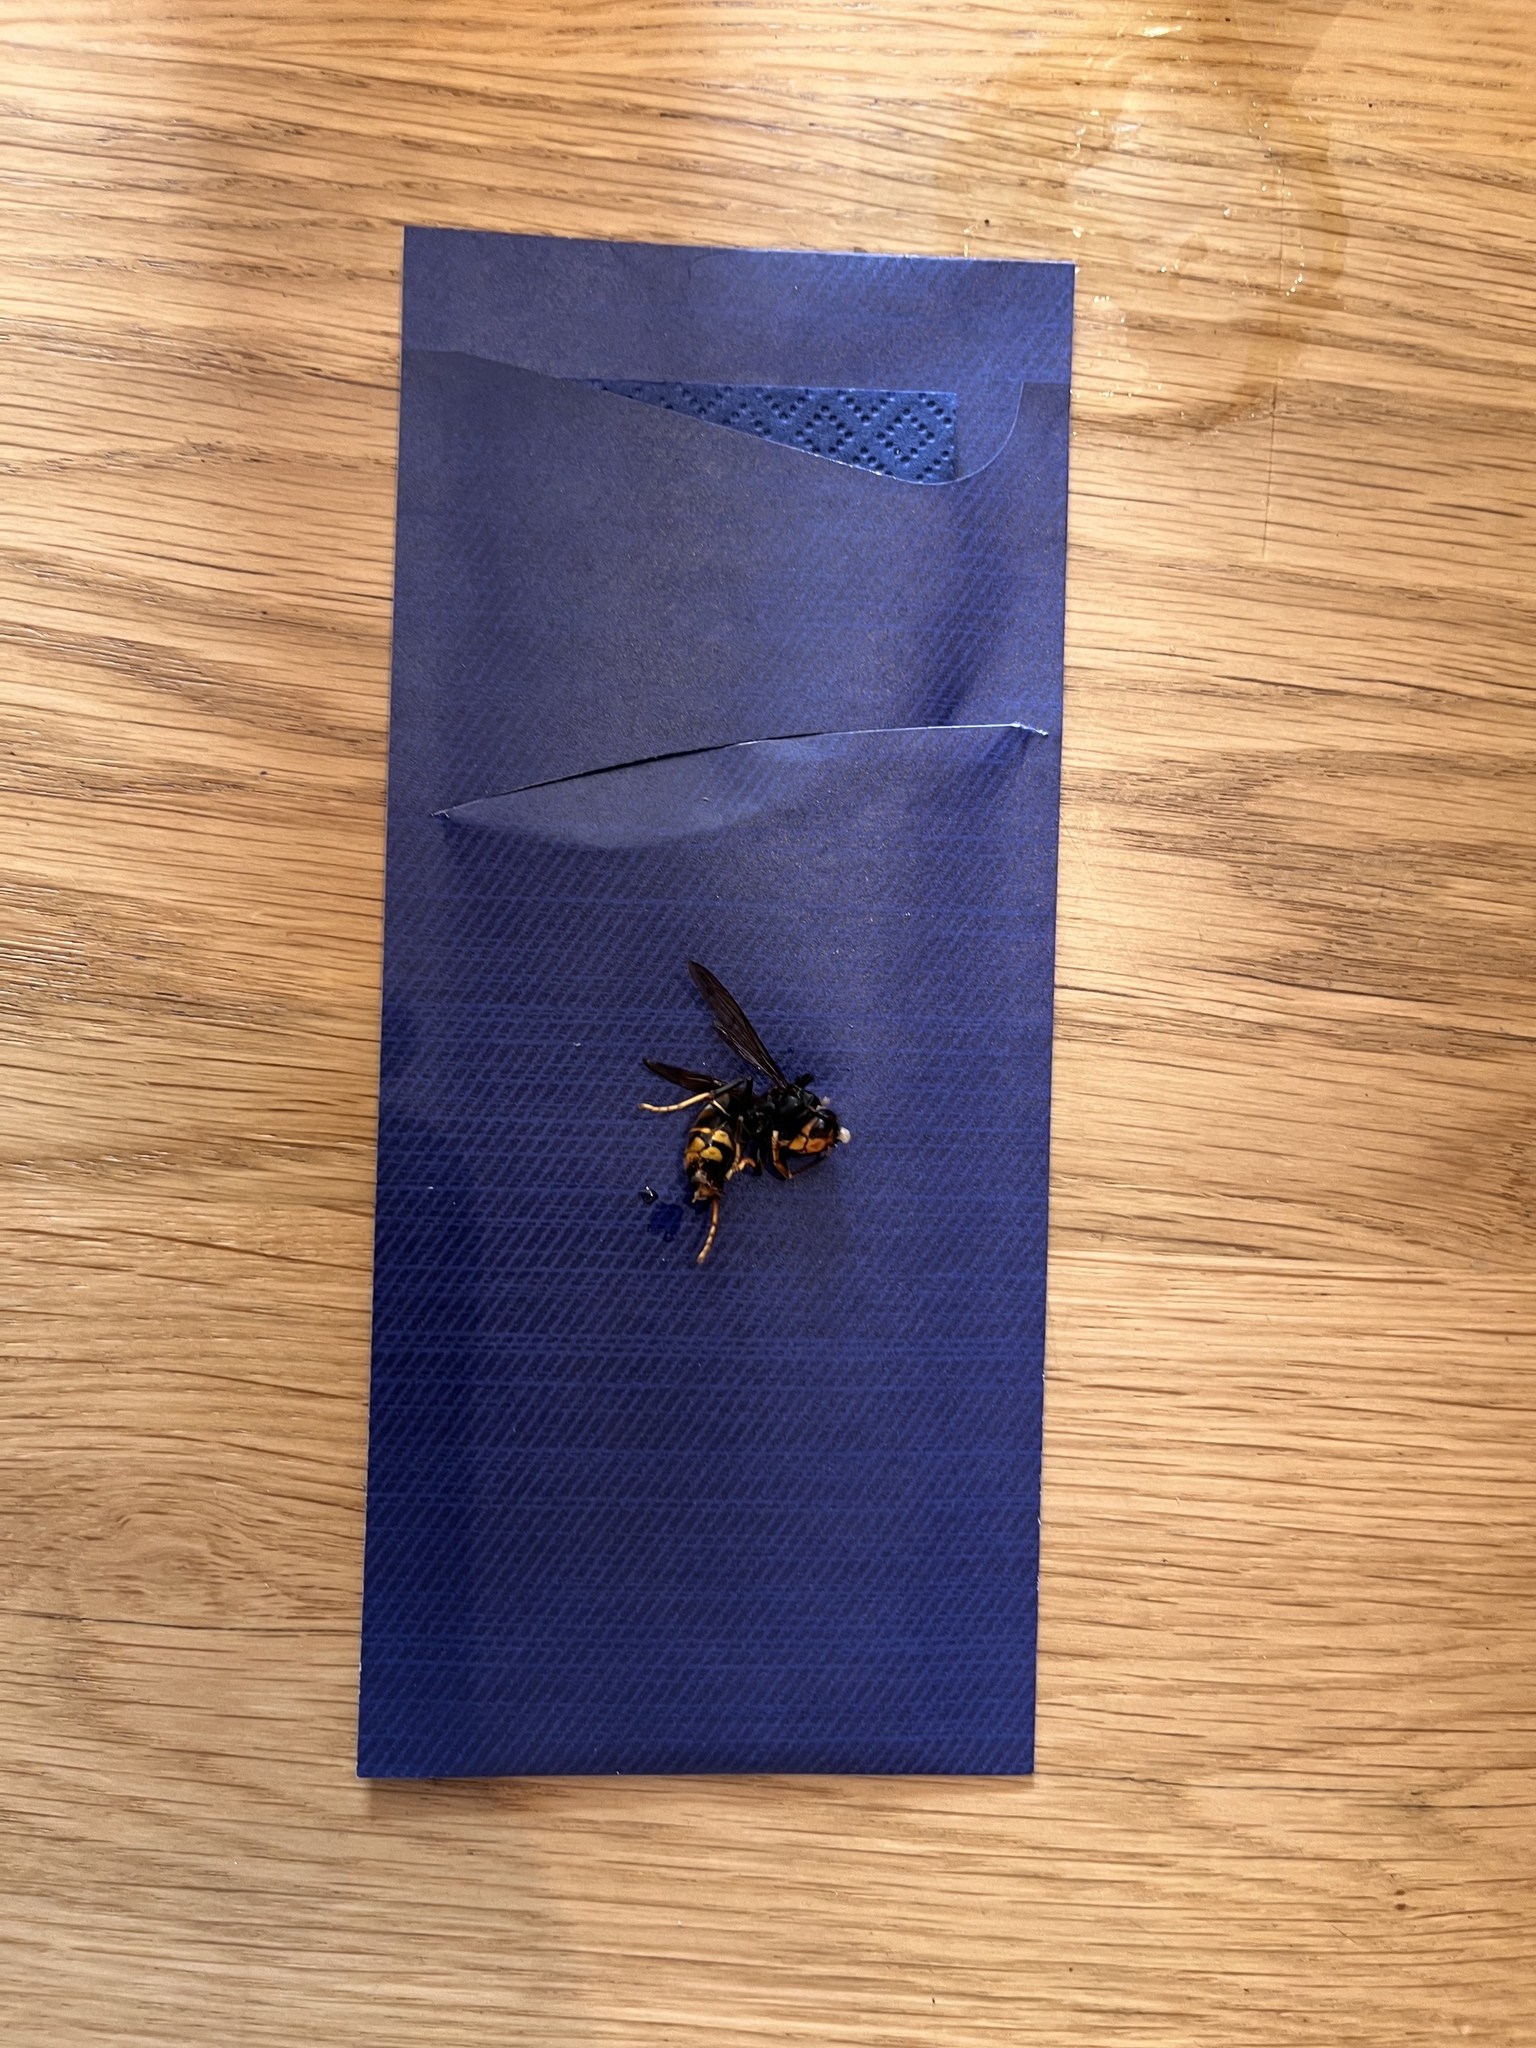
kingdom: Animalia
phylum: Arthropoda
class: Insecta
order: Hymenoptera
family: Vespidae
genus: Vespa
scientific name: Vespa velutina
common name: Asian hornet
